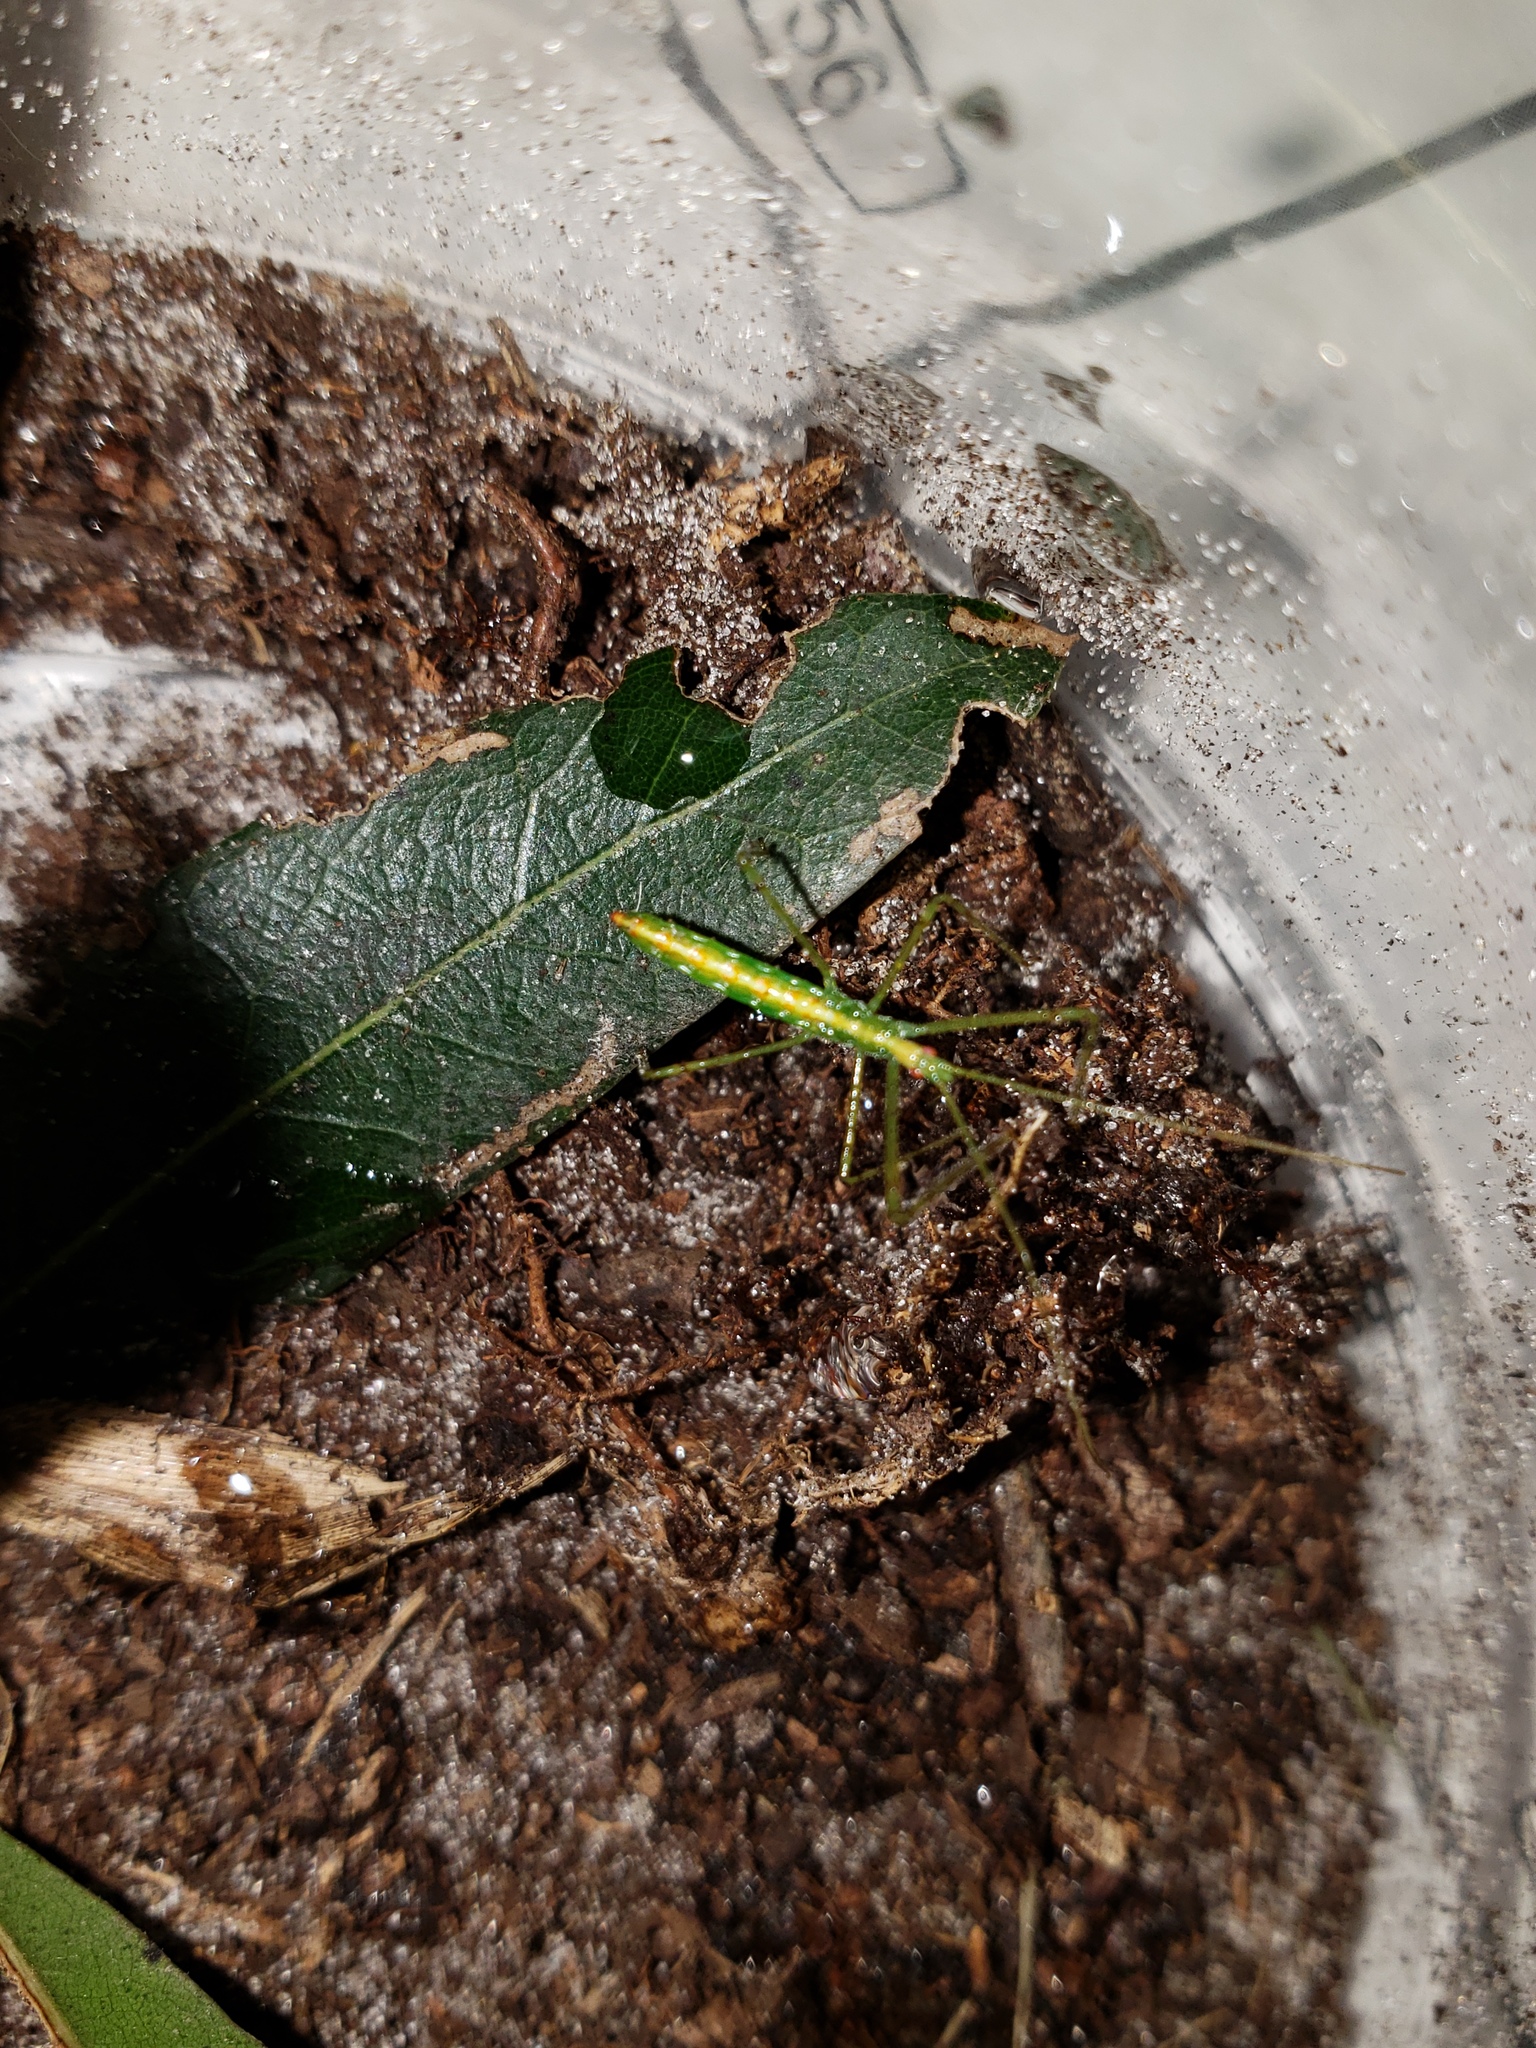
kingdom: Animalia
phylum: Arthropoda
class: Insecta
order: Hemiptera
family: Reduviidae
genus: Zelus
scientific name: Zelus luridus
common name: Pale green assassin bug
